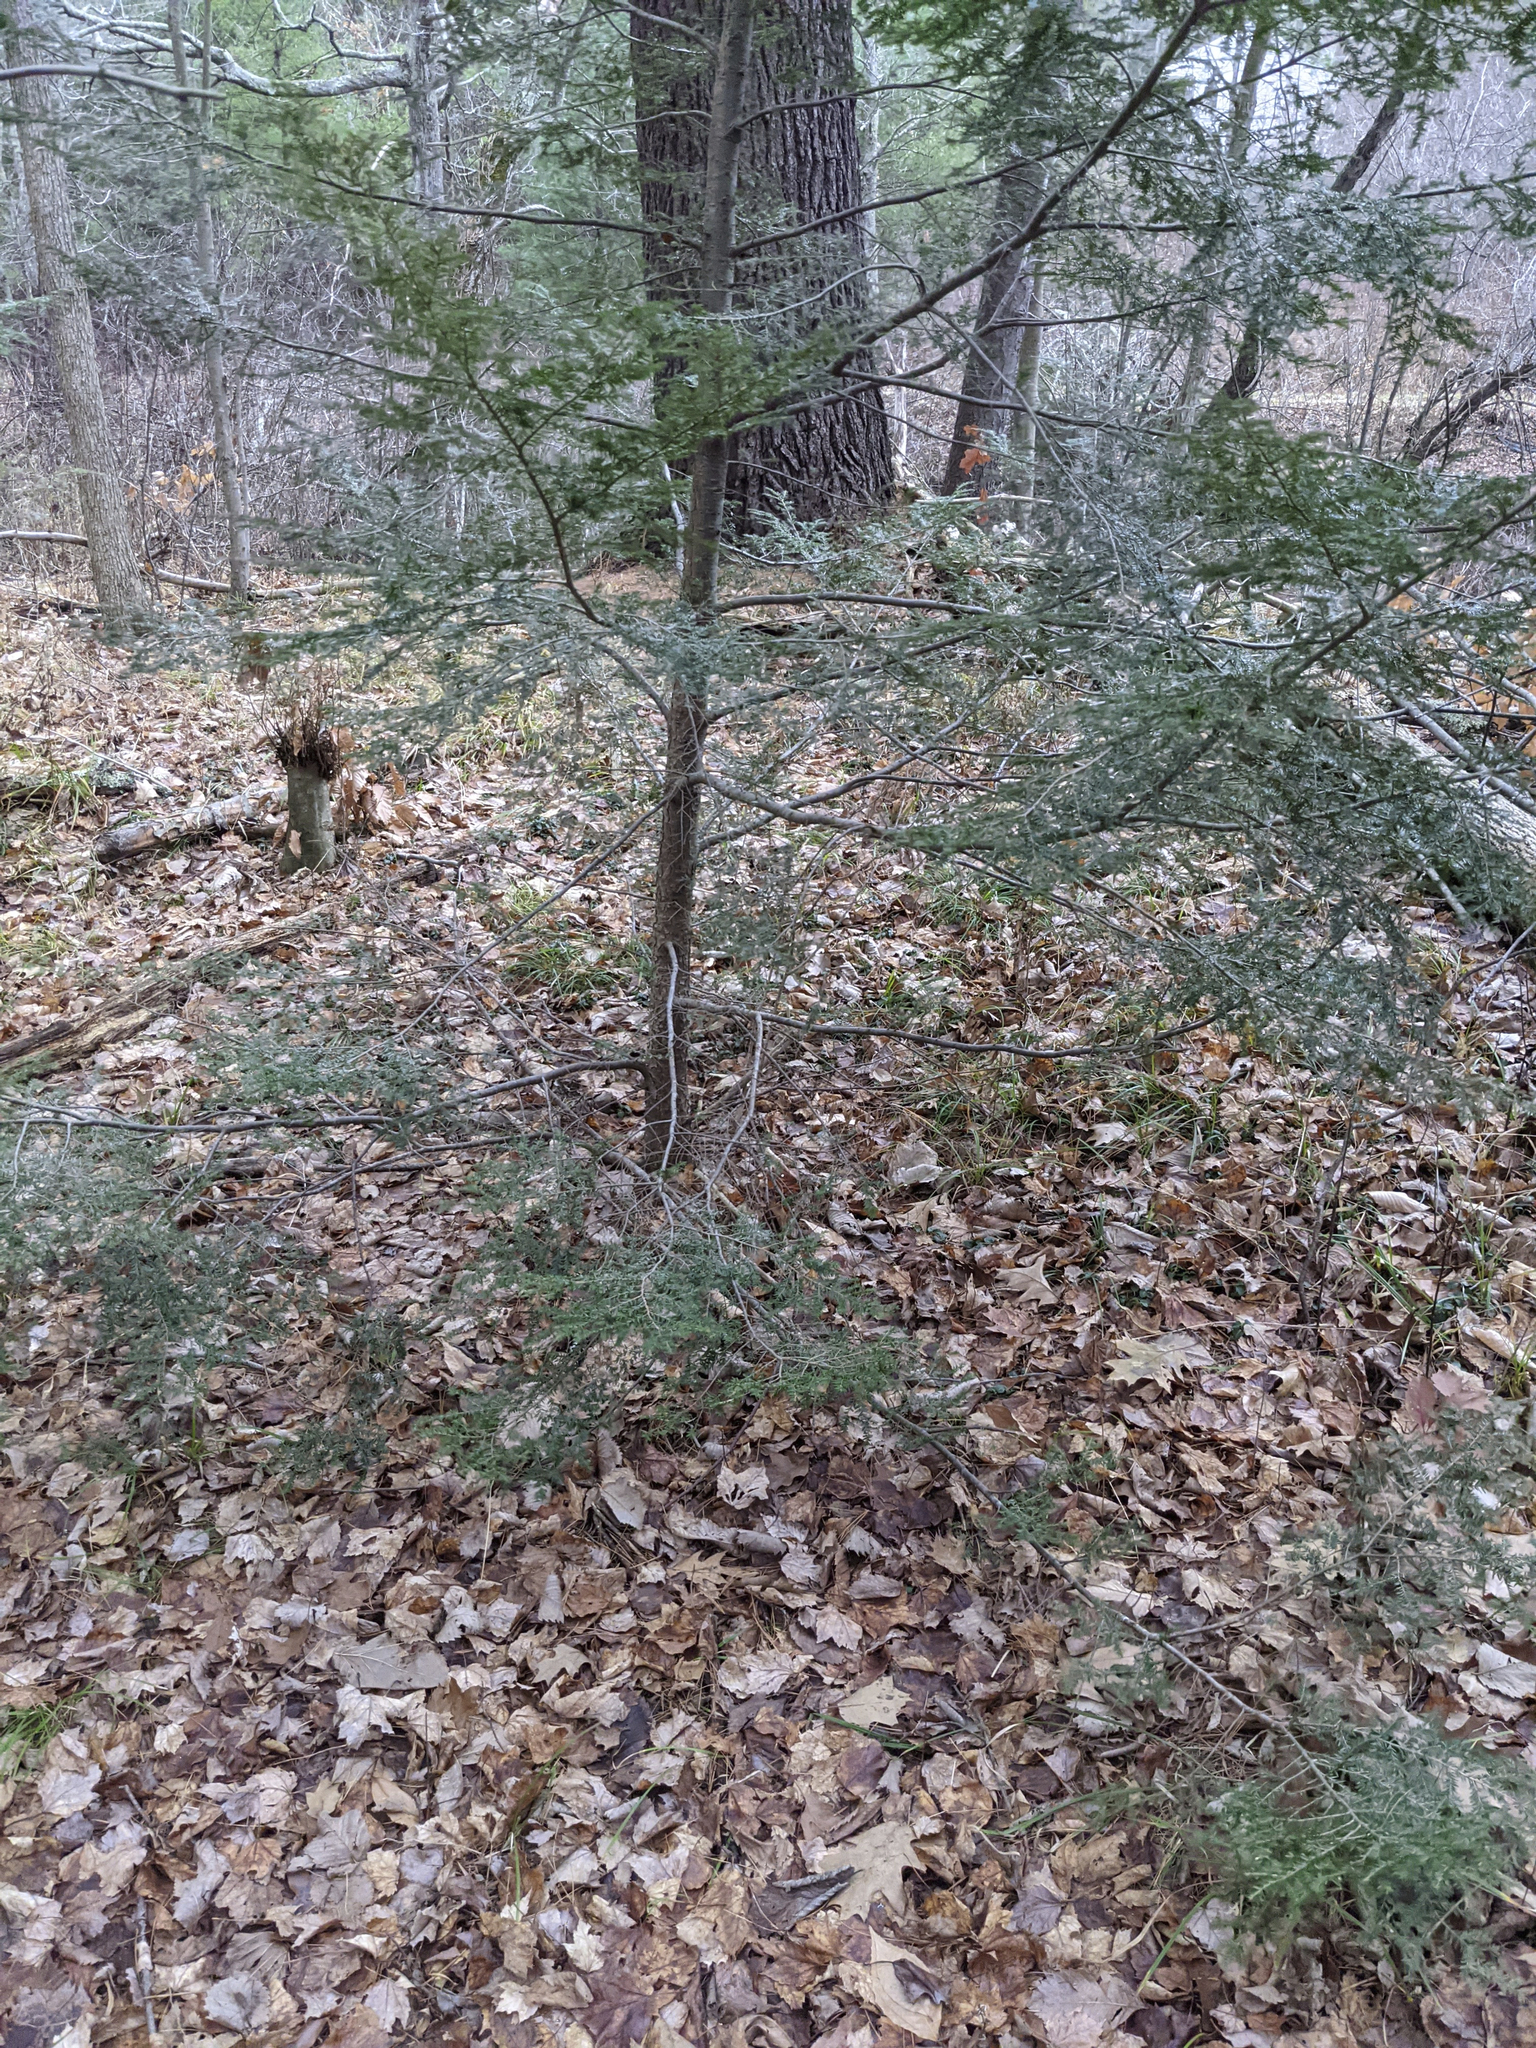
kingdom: Plantae
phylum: Tracheophyta
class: Pinopsida
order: Pinales
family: Pinaceae
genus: Tsuga
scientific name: Tsuga canadensis
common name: Eastern hemlock
